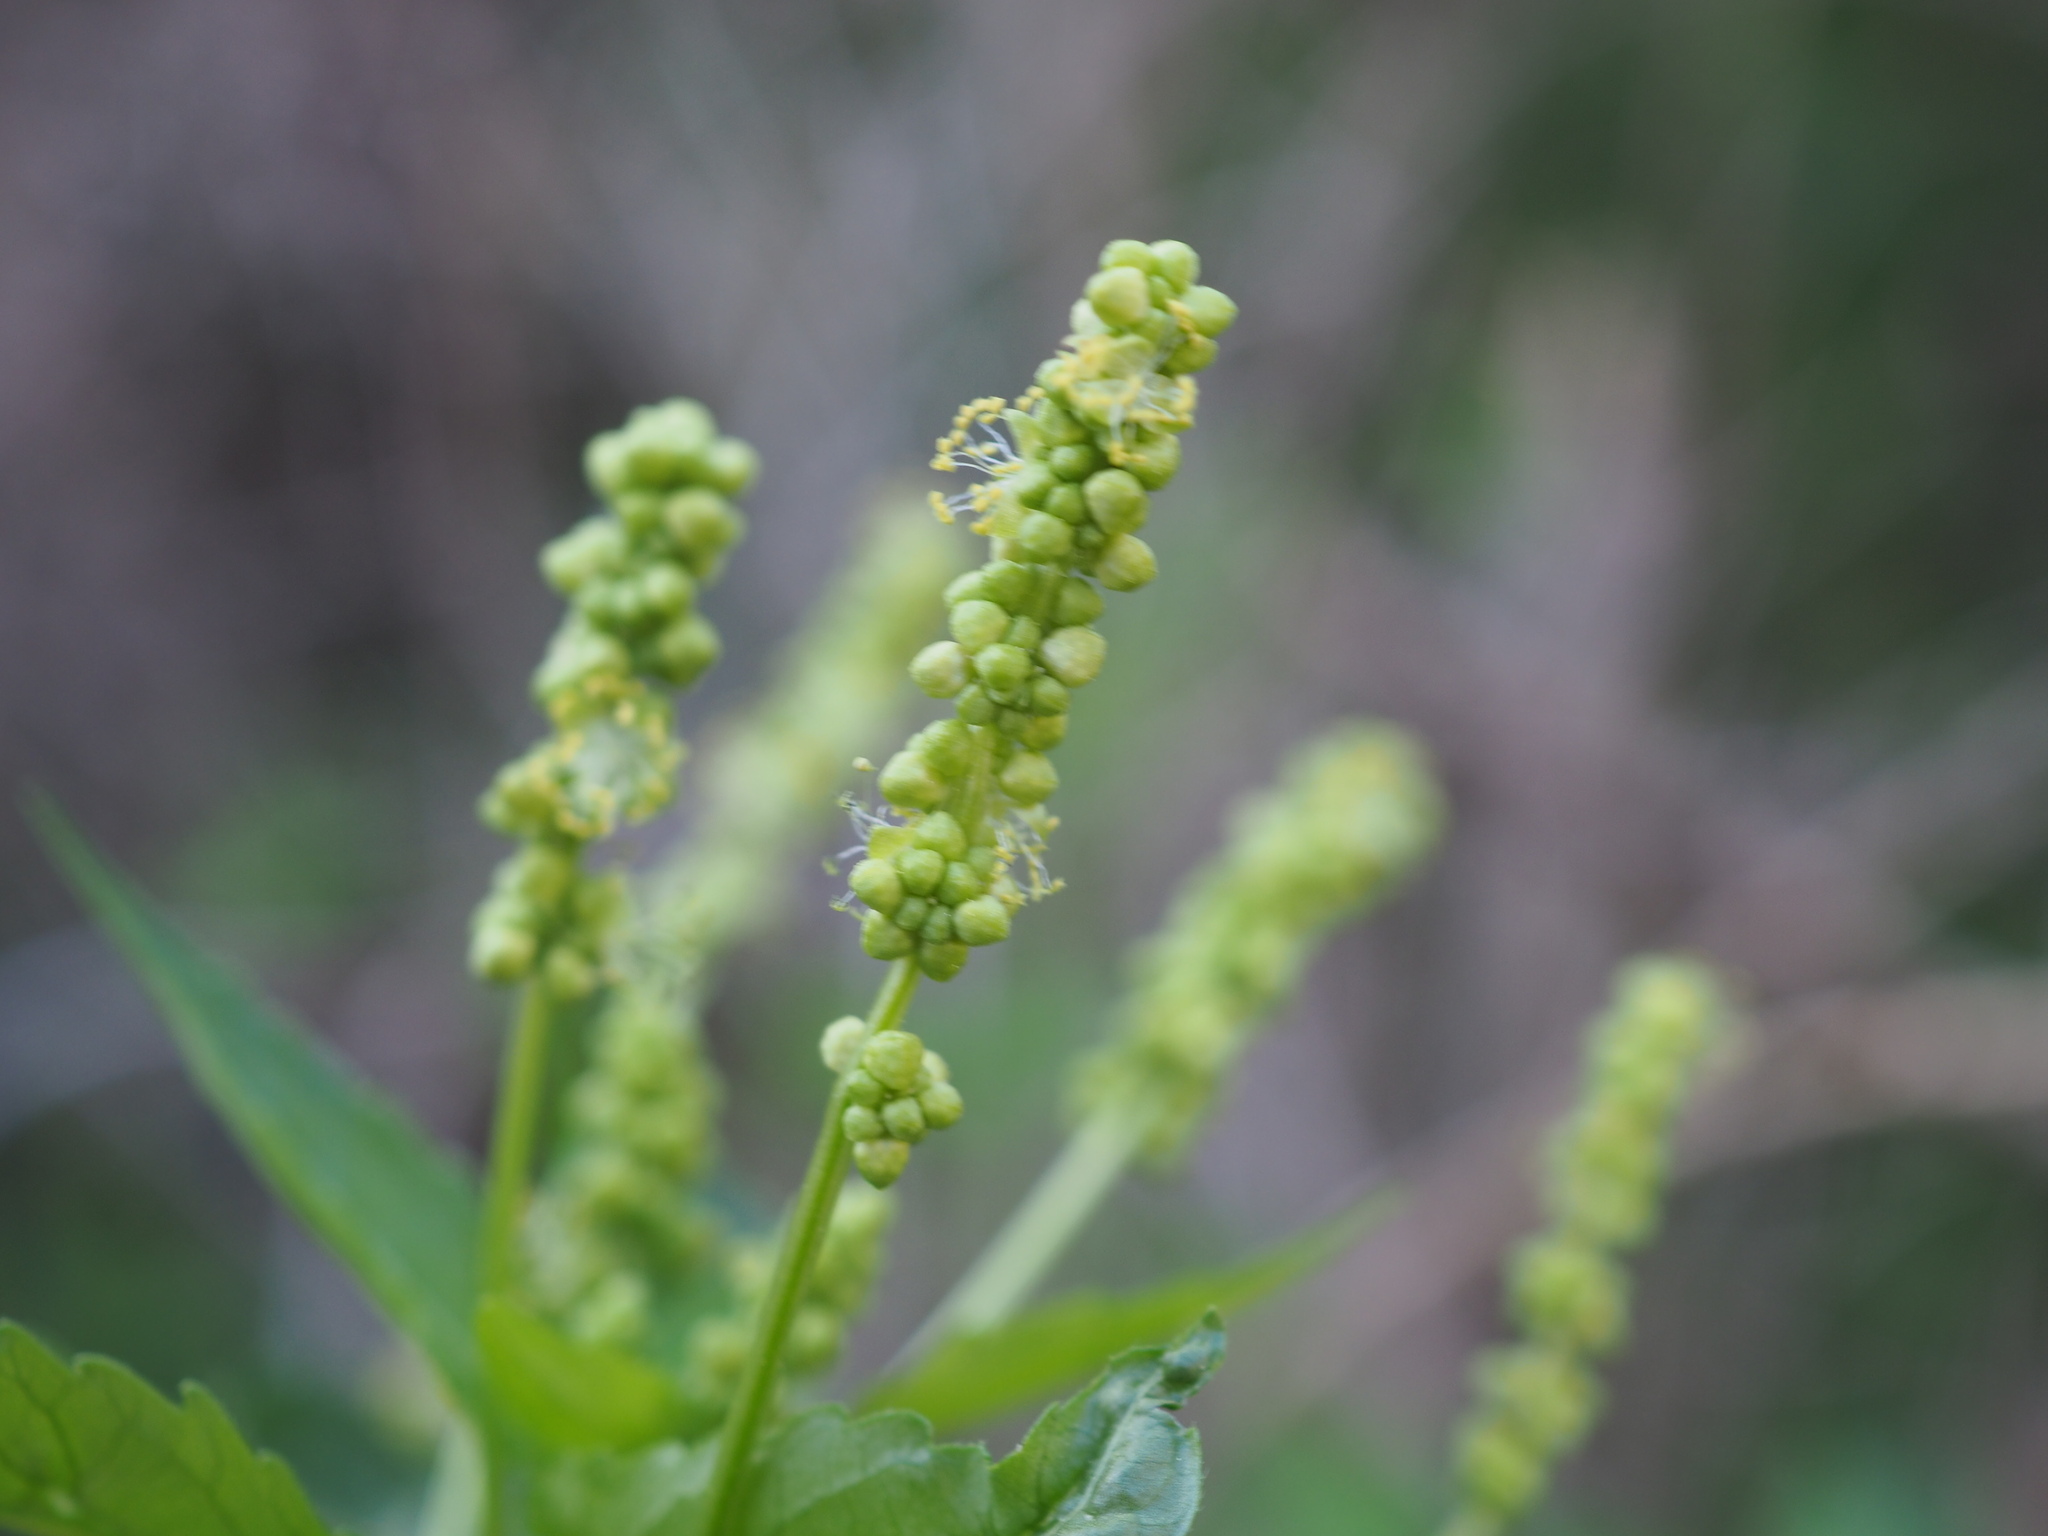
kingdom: Plantae
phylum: Tracheophyta
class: Magnoliopsida
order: Malpighiales
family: Euphorbiaceae
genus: Mercurialis
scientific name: Mercurialis annua
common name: Annual mercury
